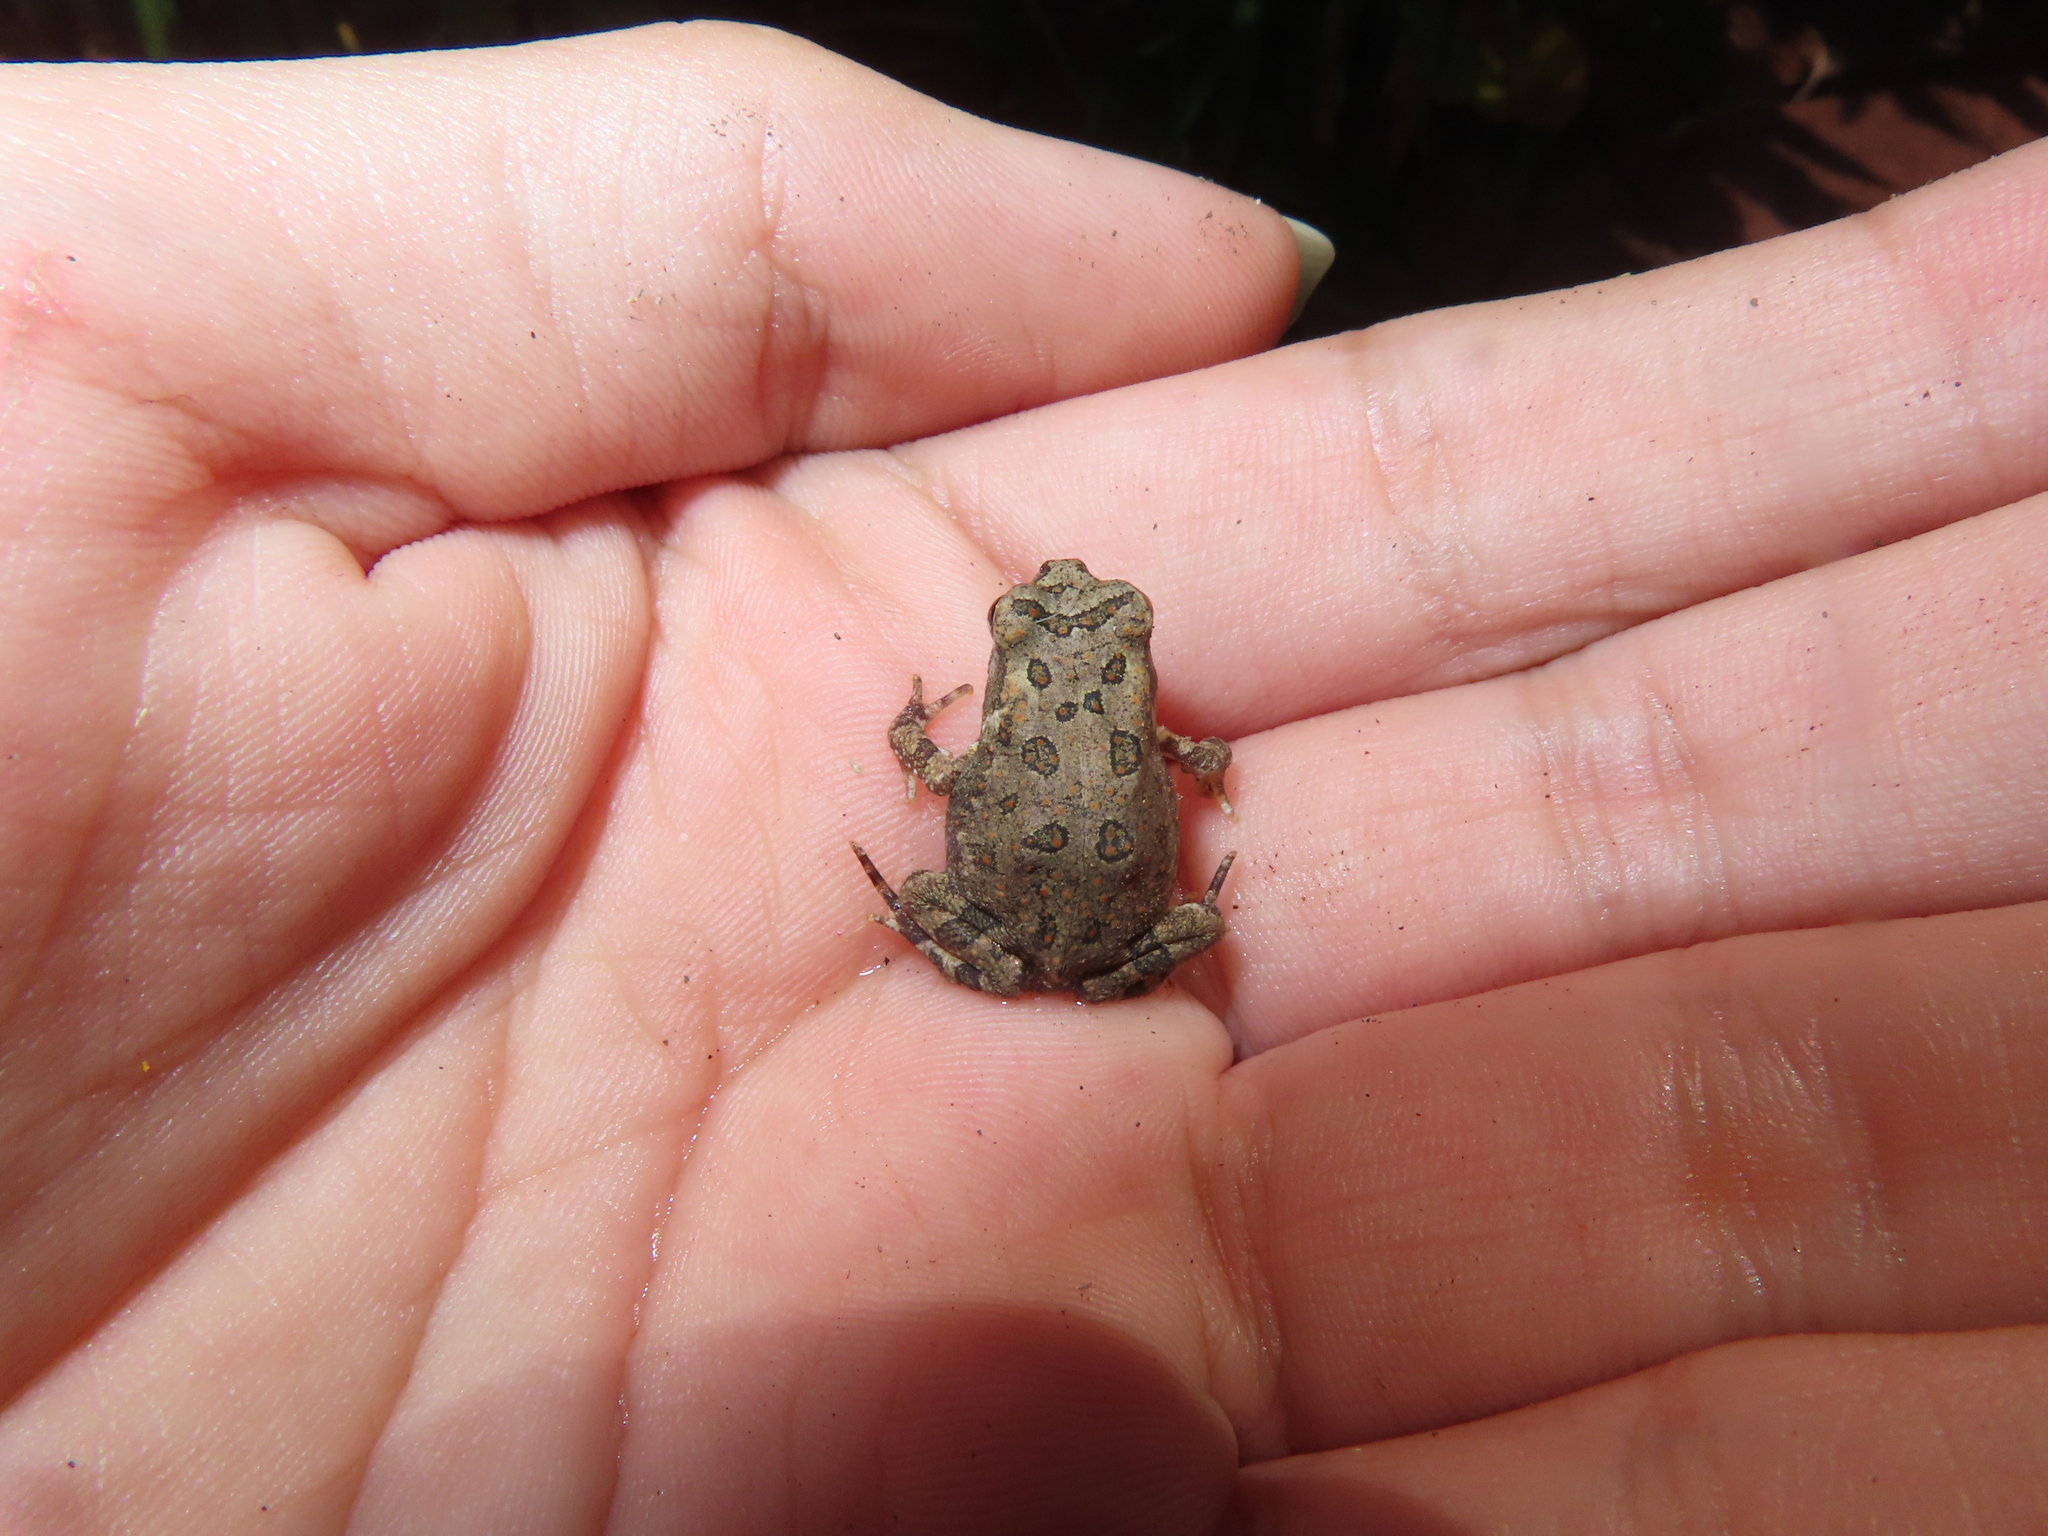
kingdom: Animalia
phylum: Chordata
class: Amphibia
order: Anura
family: Bufonidae
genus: Anaxyrus
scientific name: Anaxyrus fowleri
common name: Fowler's toad
